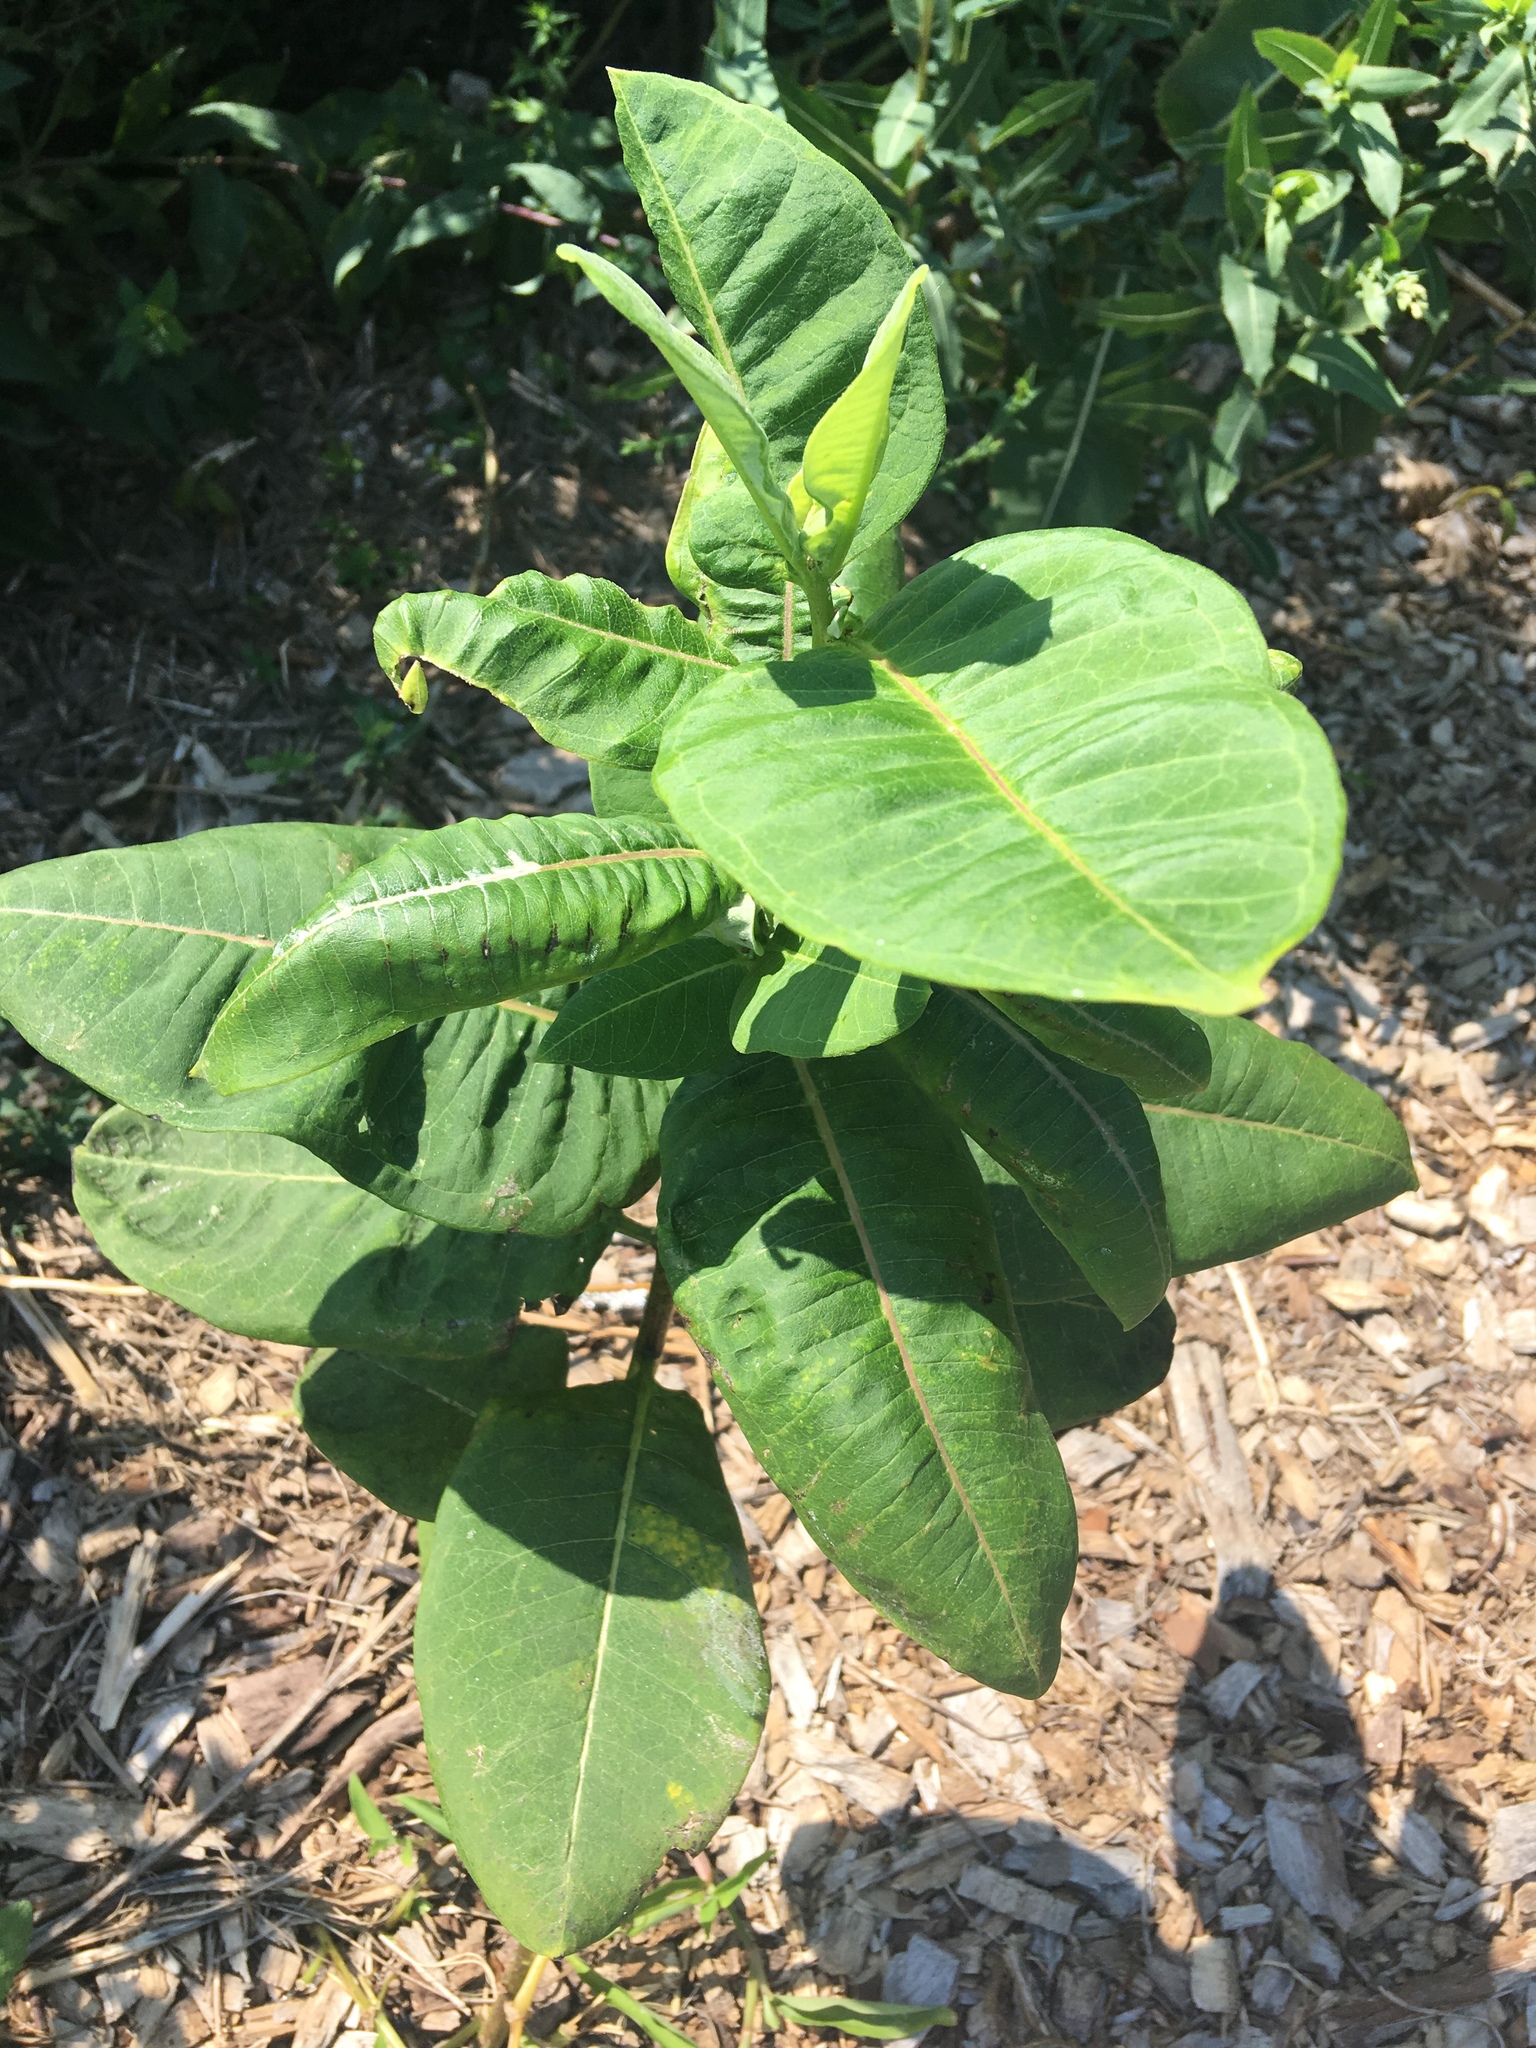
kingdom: Plantae
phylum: Tracheophyta
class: Magnoliopsida
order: Gentianales
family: Apocynaceae
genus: Asclepias
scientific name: Asclepias syriaca
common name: Common milkweed
